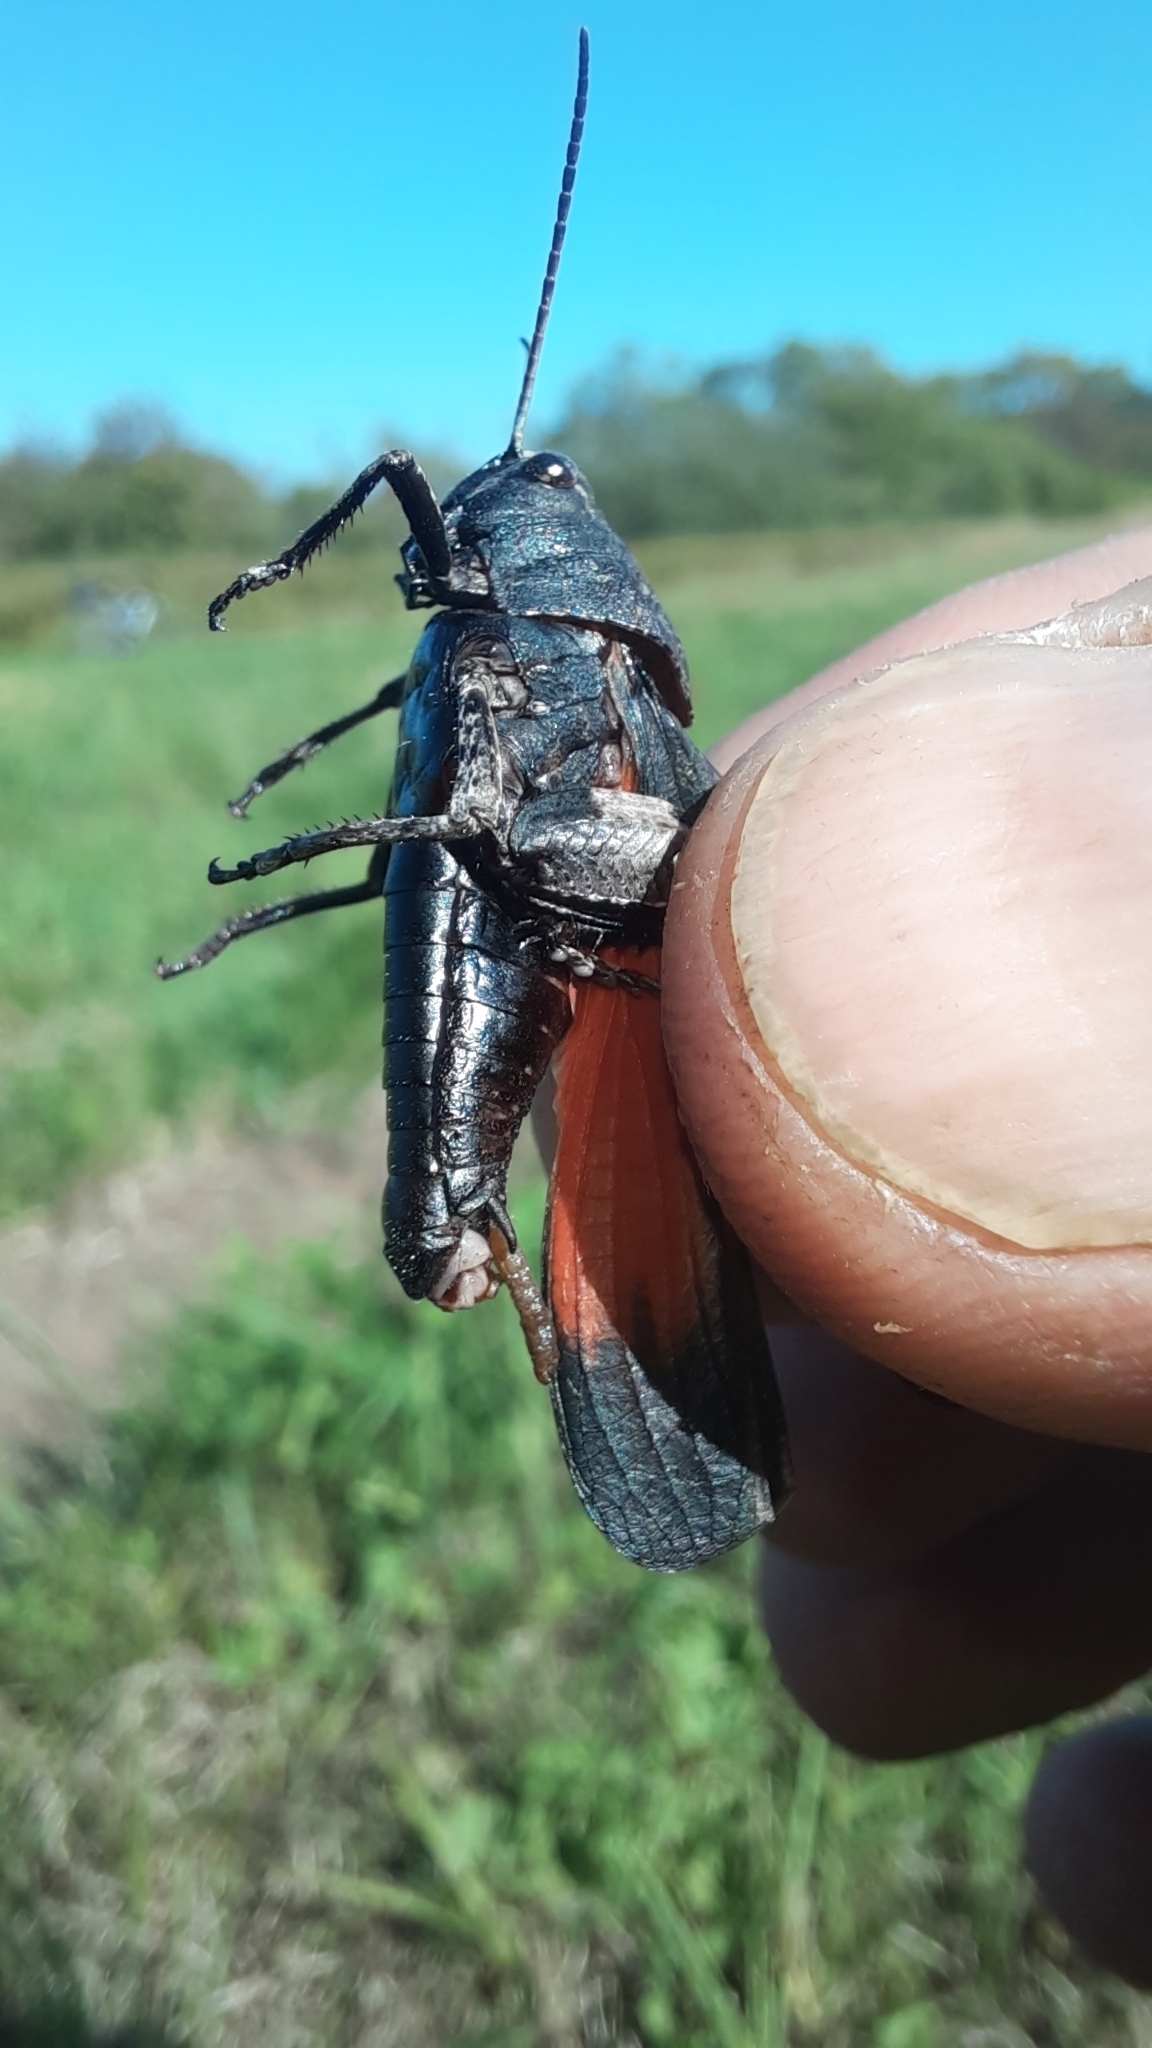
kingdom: Animalia
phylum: Arthropoda
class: Insecta
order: Orthoptera
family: Acrididae
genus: Psophus
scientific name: Psophus stridulus
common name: Rattle grasshopper
